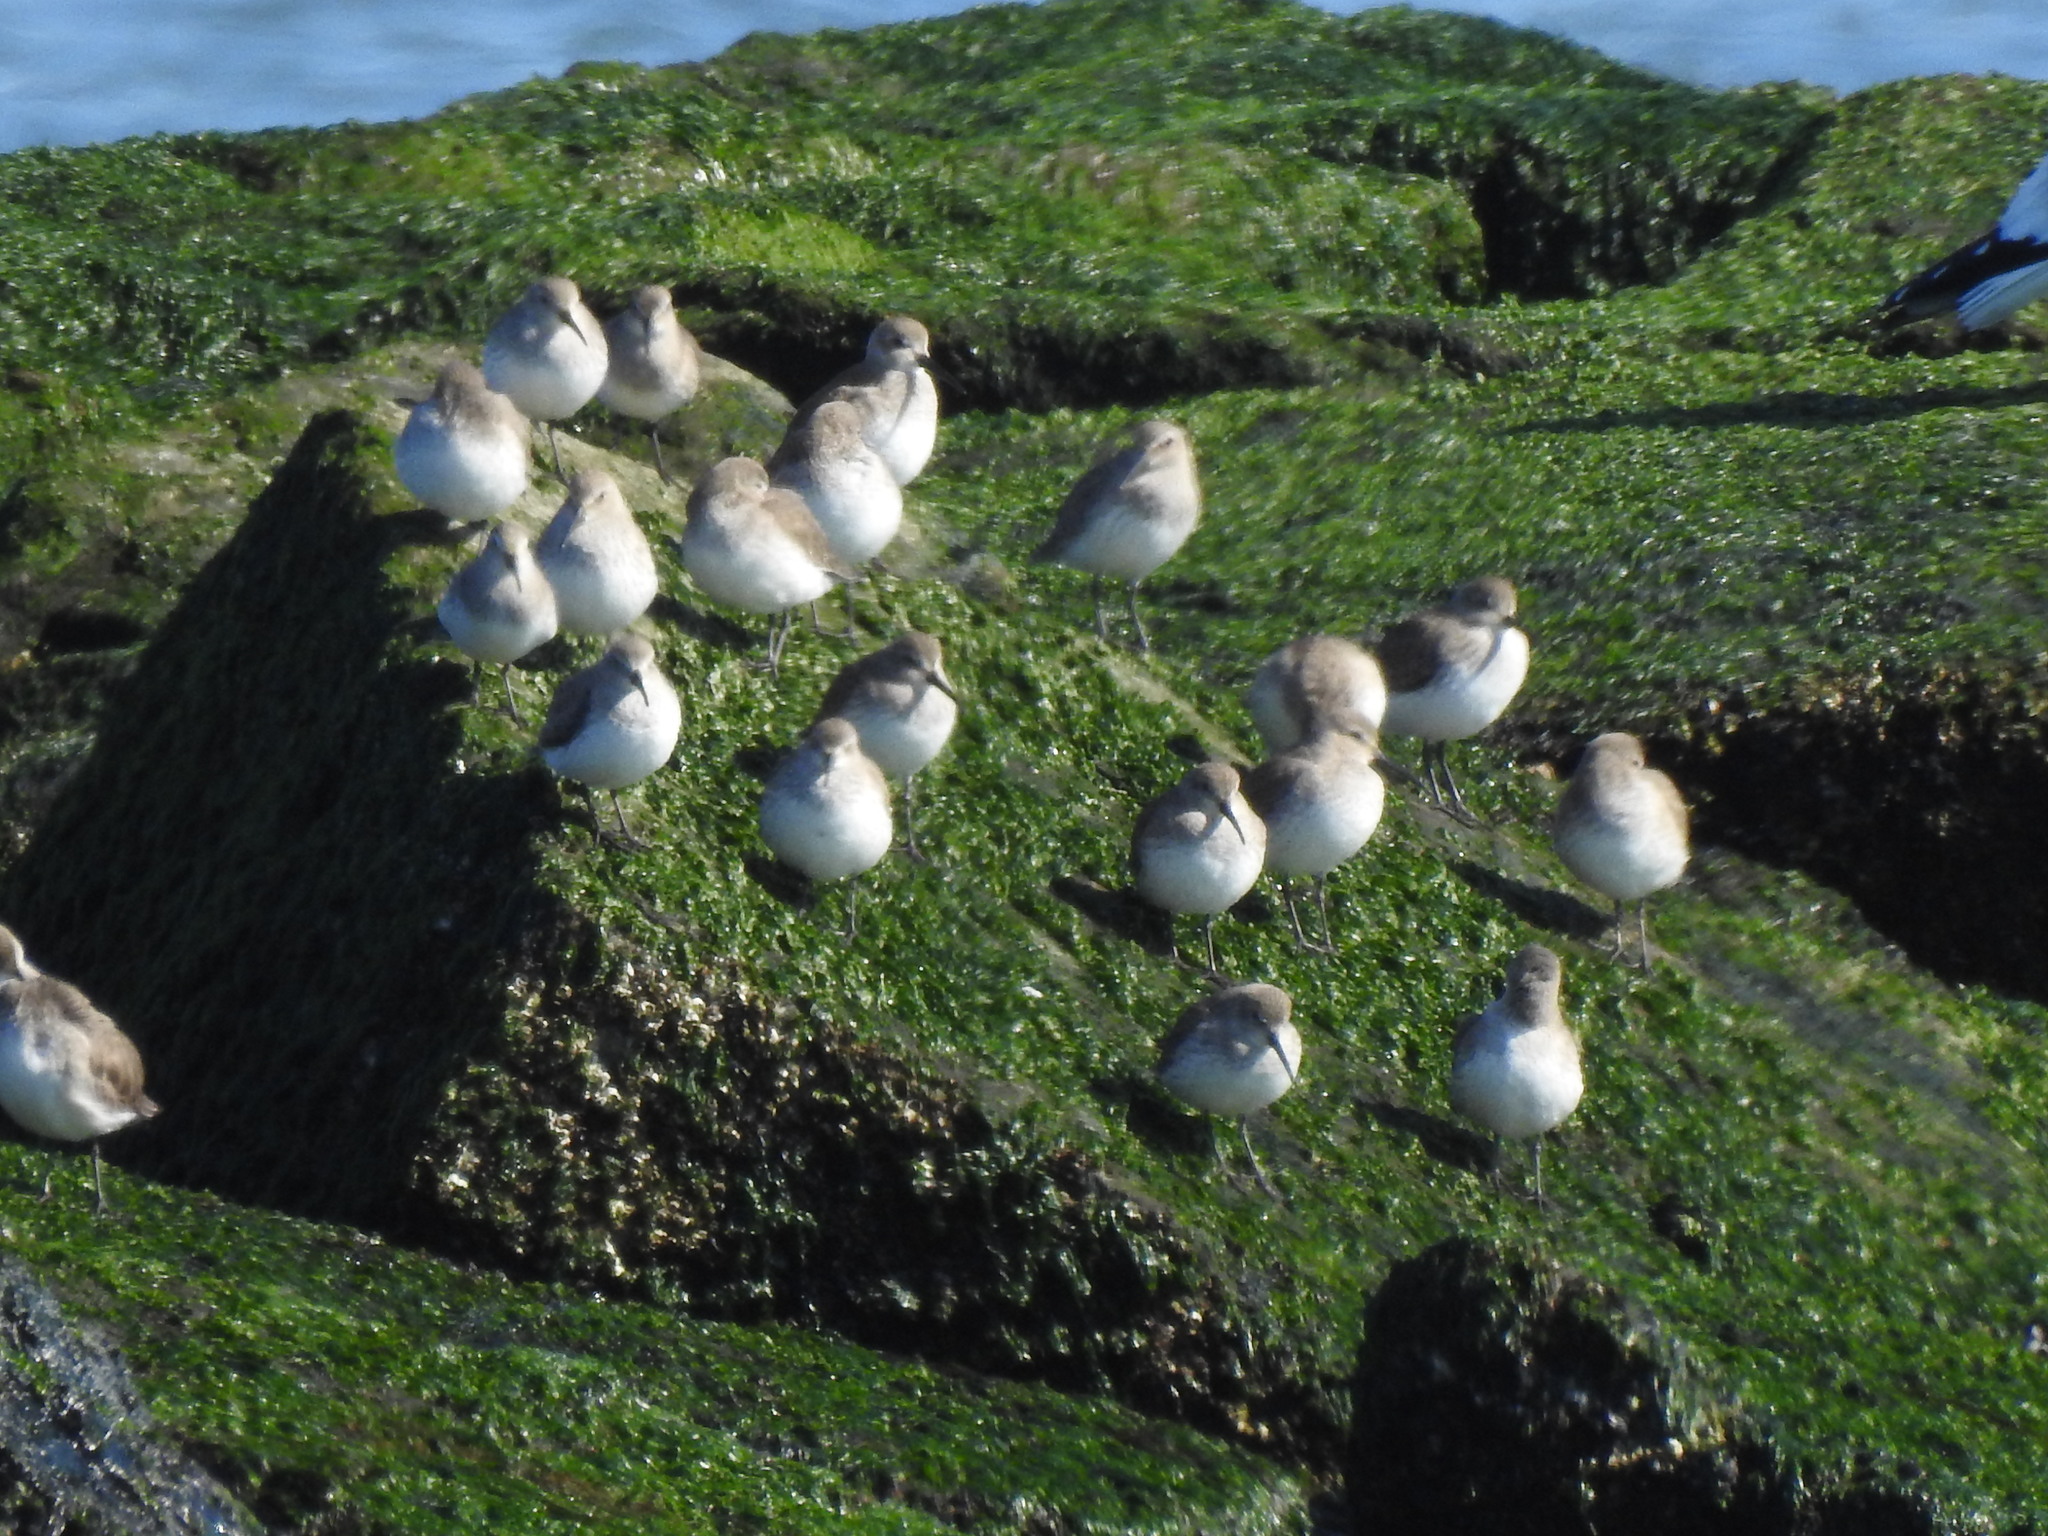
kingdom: Animalia
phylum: Chordata
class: Aves
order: Charadriiformes
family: Scolopacidae
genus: Calidris
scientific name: Calidris alpina
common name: Dunlin
